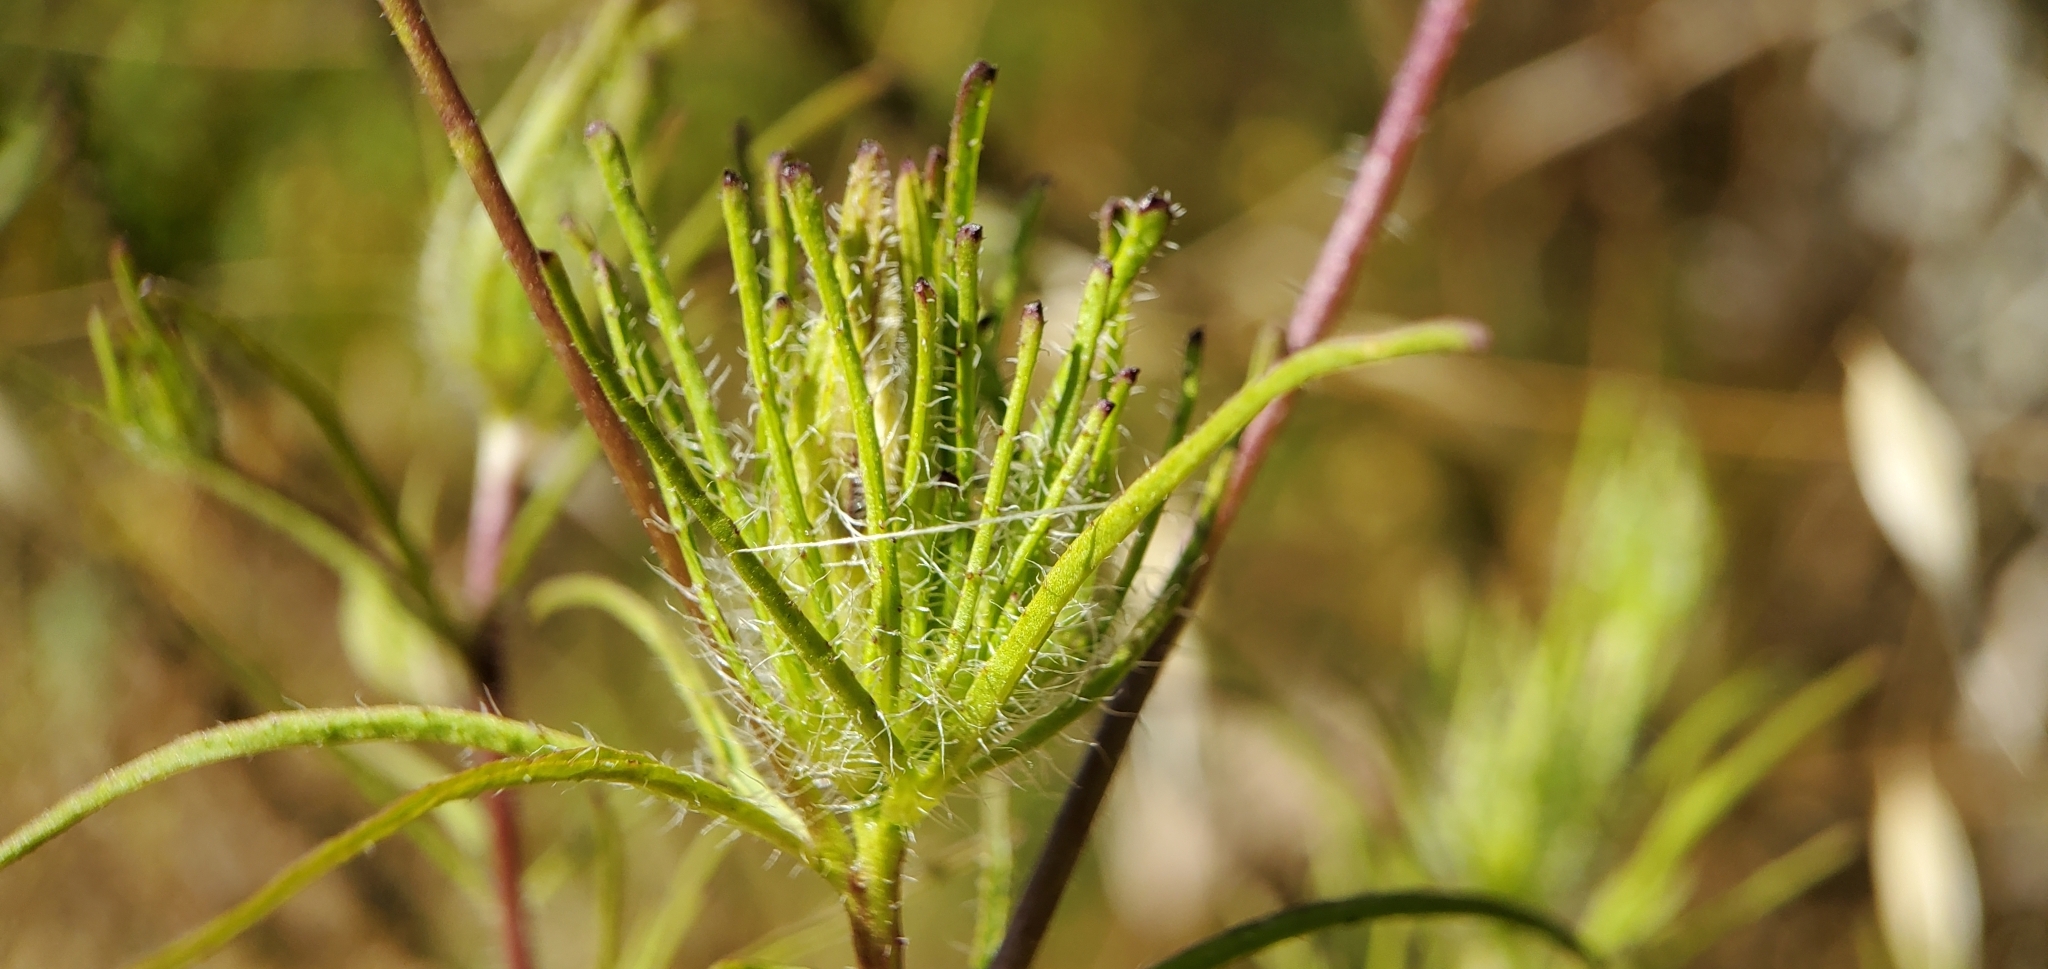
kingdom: Plantae
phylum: Tracheophyta
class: Magnoliopsida
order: Lamiales
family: Orobanchaceae
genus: Cordylanthus
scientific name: Cordylanthus rigidus
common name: Stiff-branch bird's-beak
